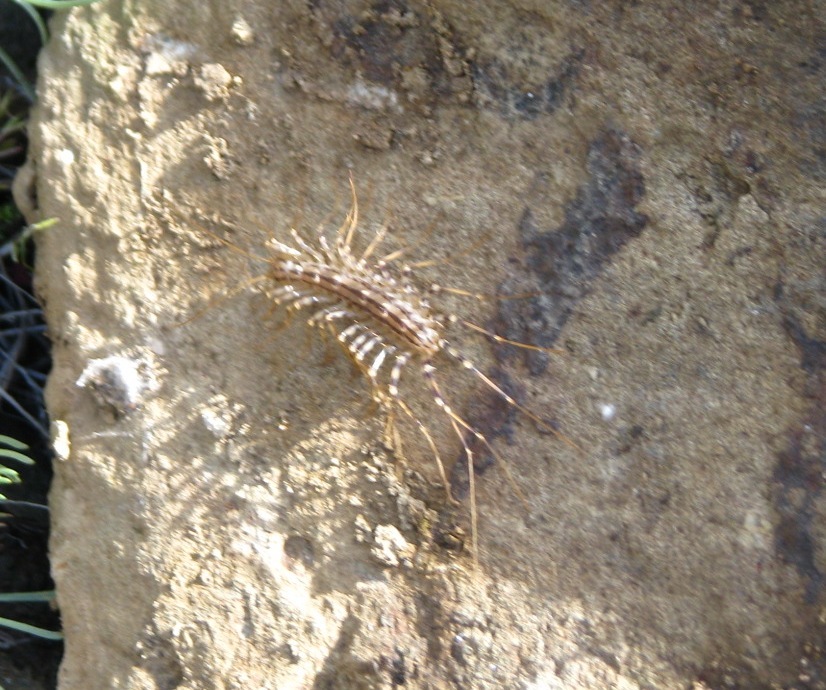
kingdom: Animalia
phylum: Arthropoda
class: Chilopoda
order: Scutigeromorpha
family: Scutigeridae
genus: Scutigera
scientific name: Scutigera coleoptrata
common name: House centipede
